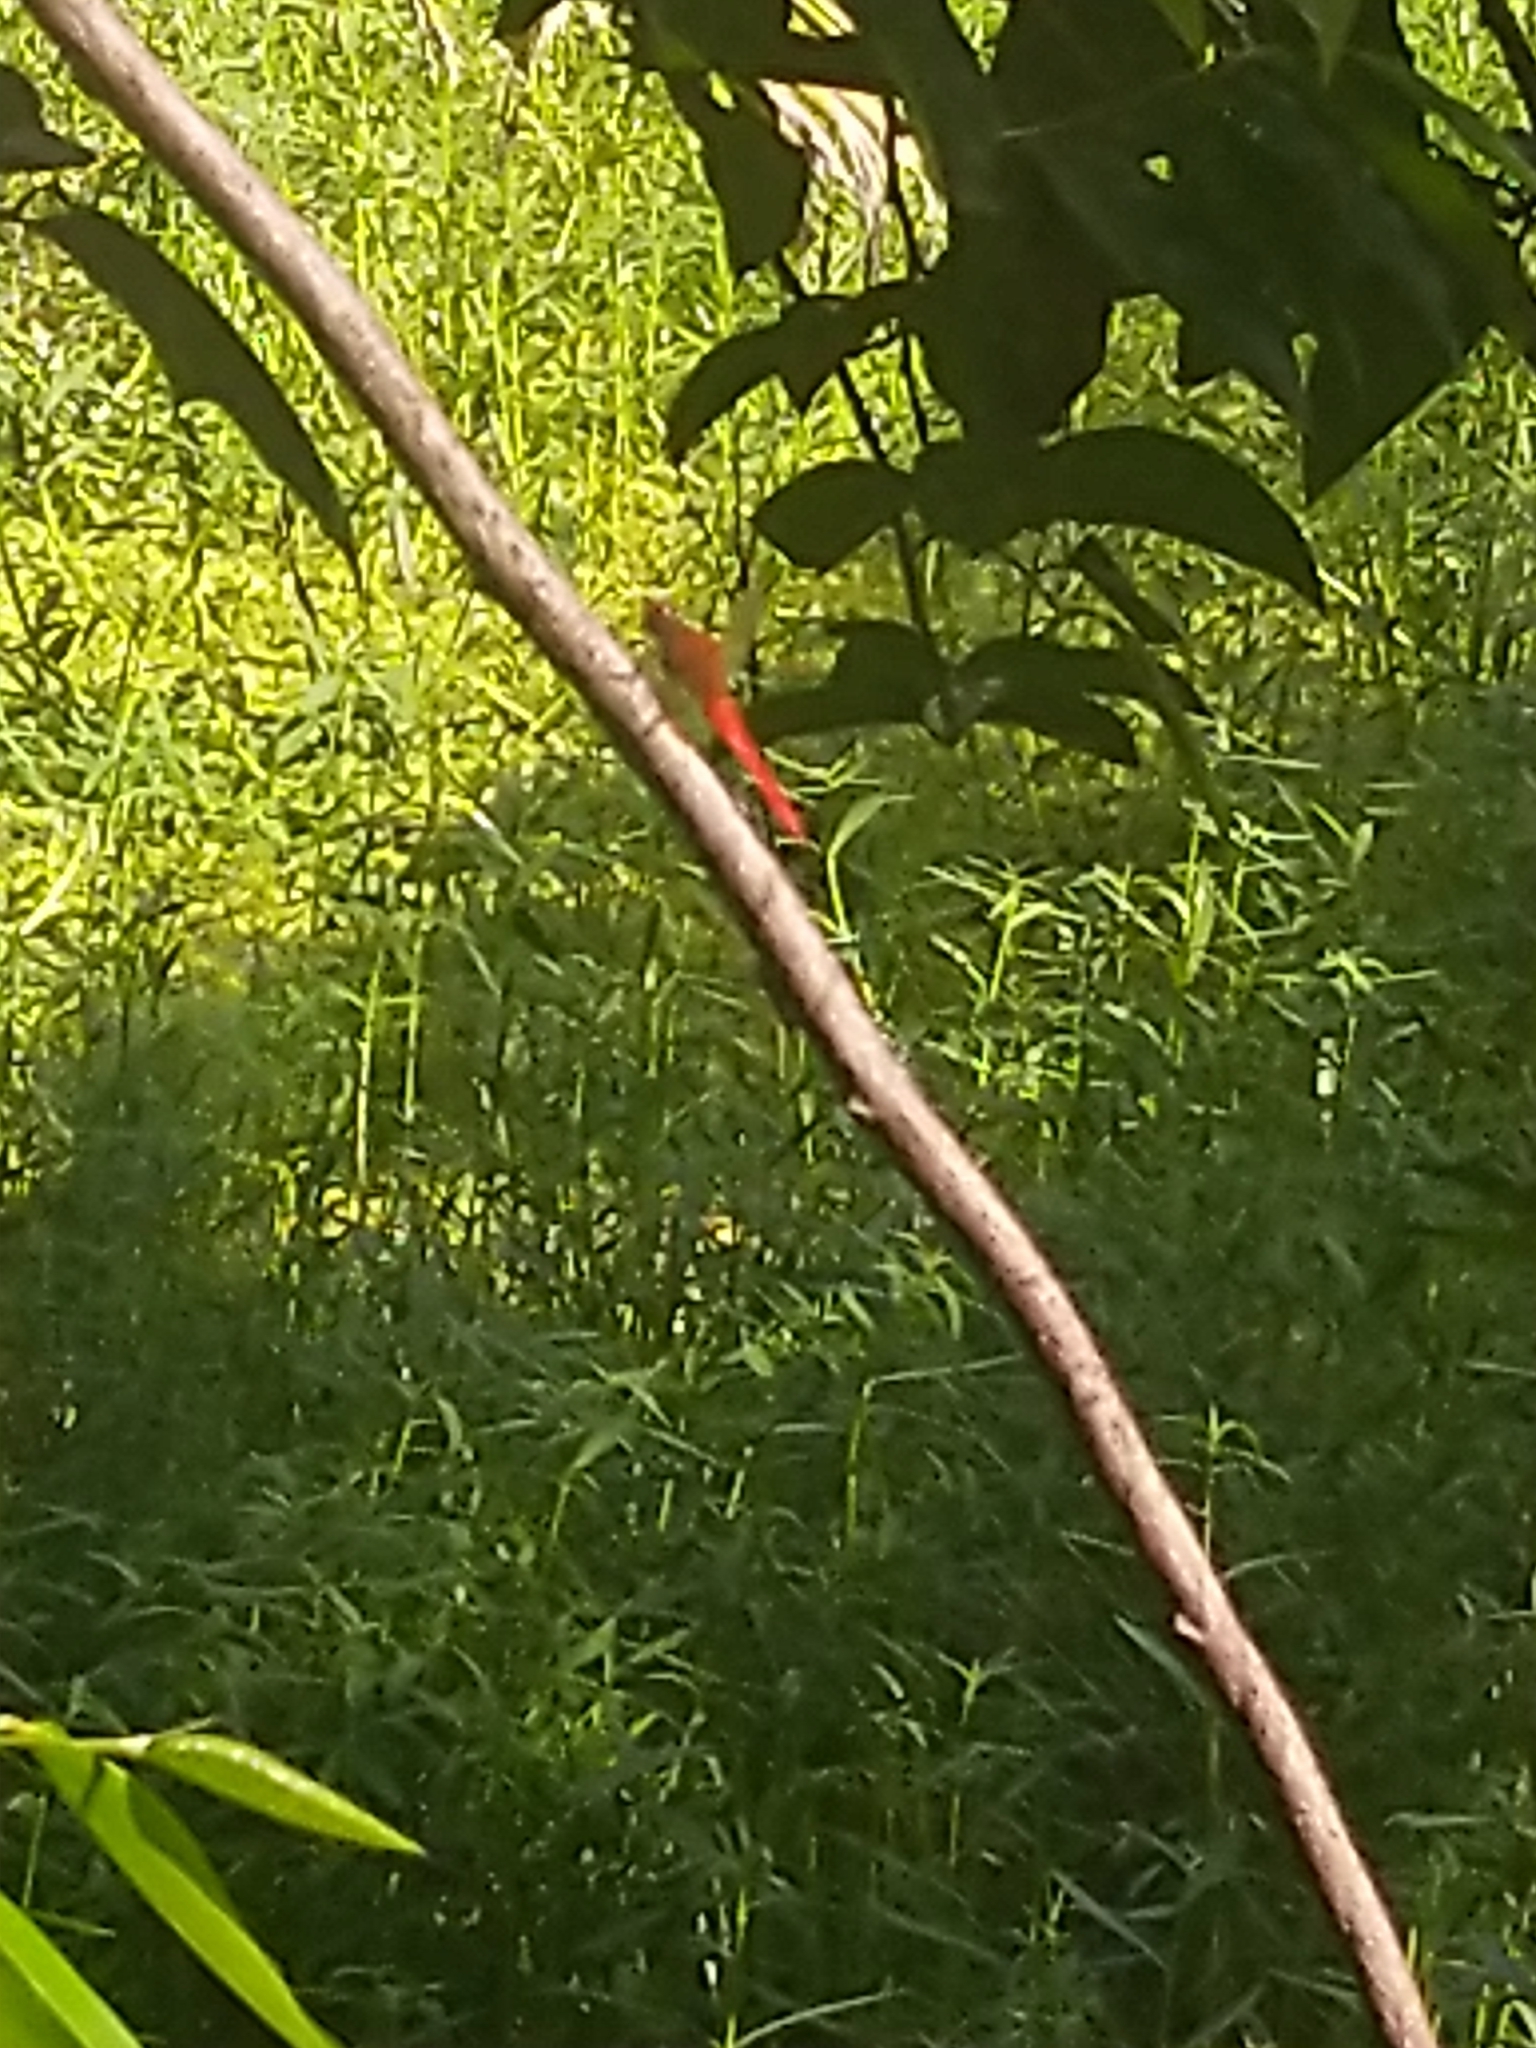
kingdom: Animalia
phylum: Arthropoda
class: Insecta
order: Odonata
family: Libellulidae
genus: Rhodothemis
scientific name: Rhodothemis rufa
